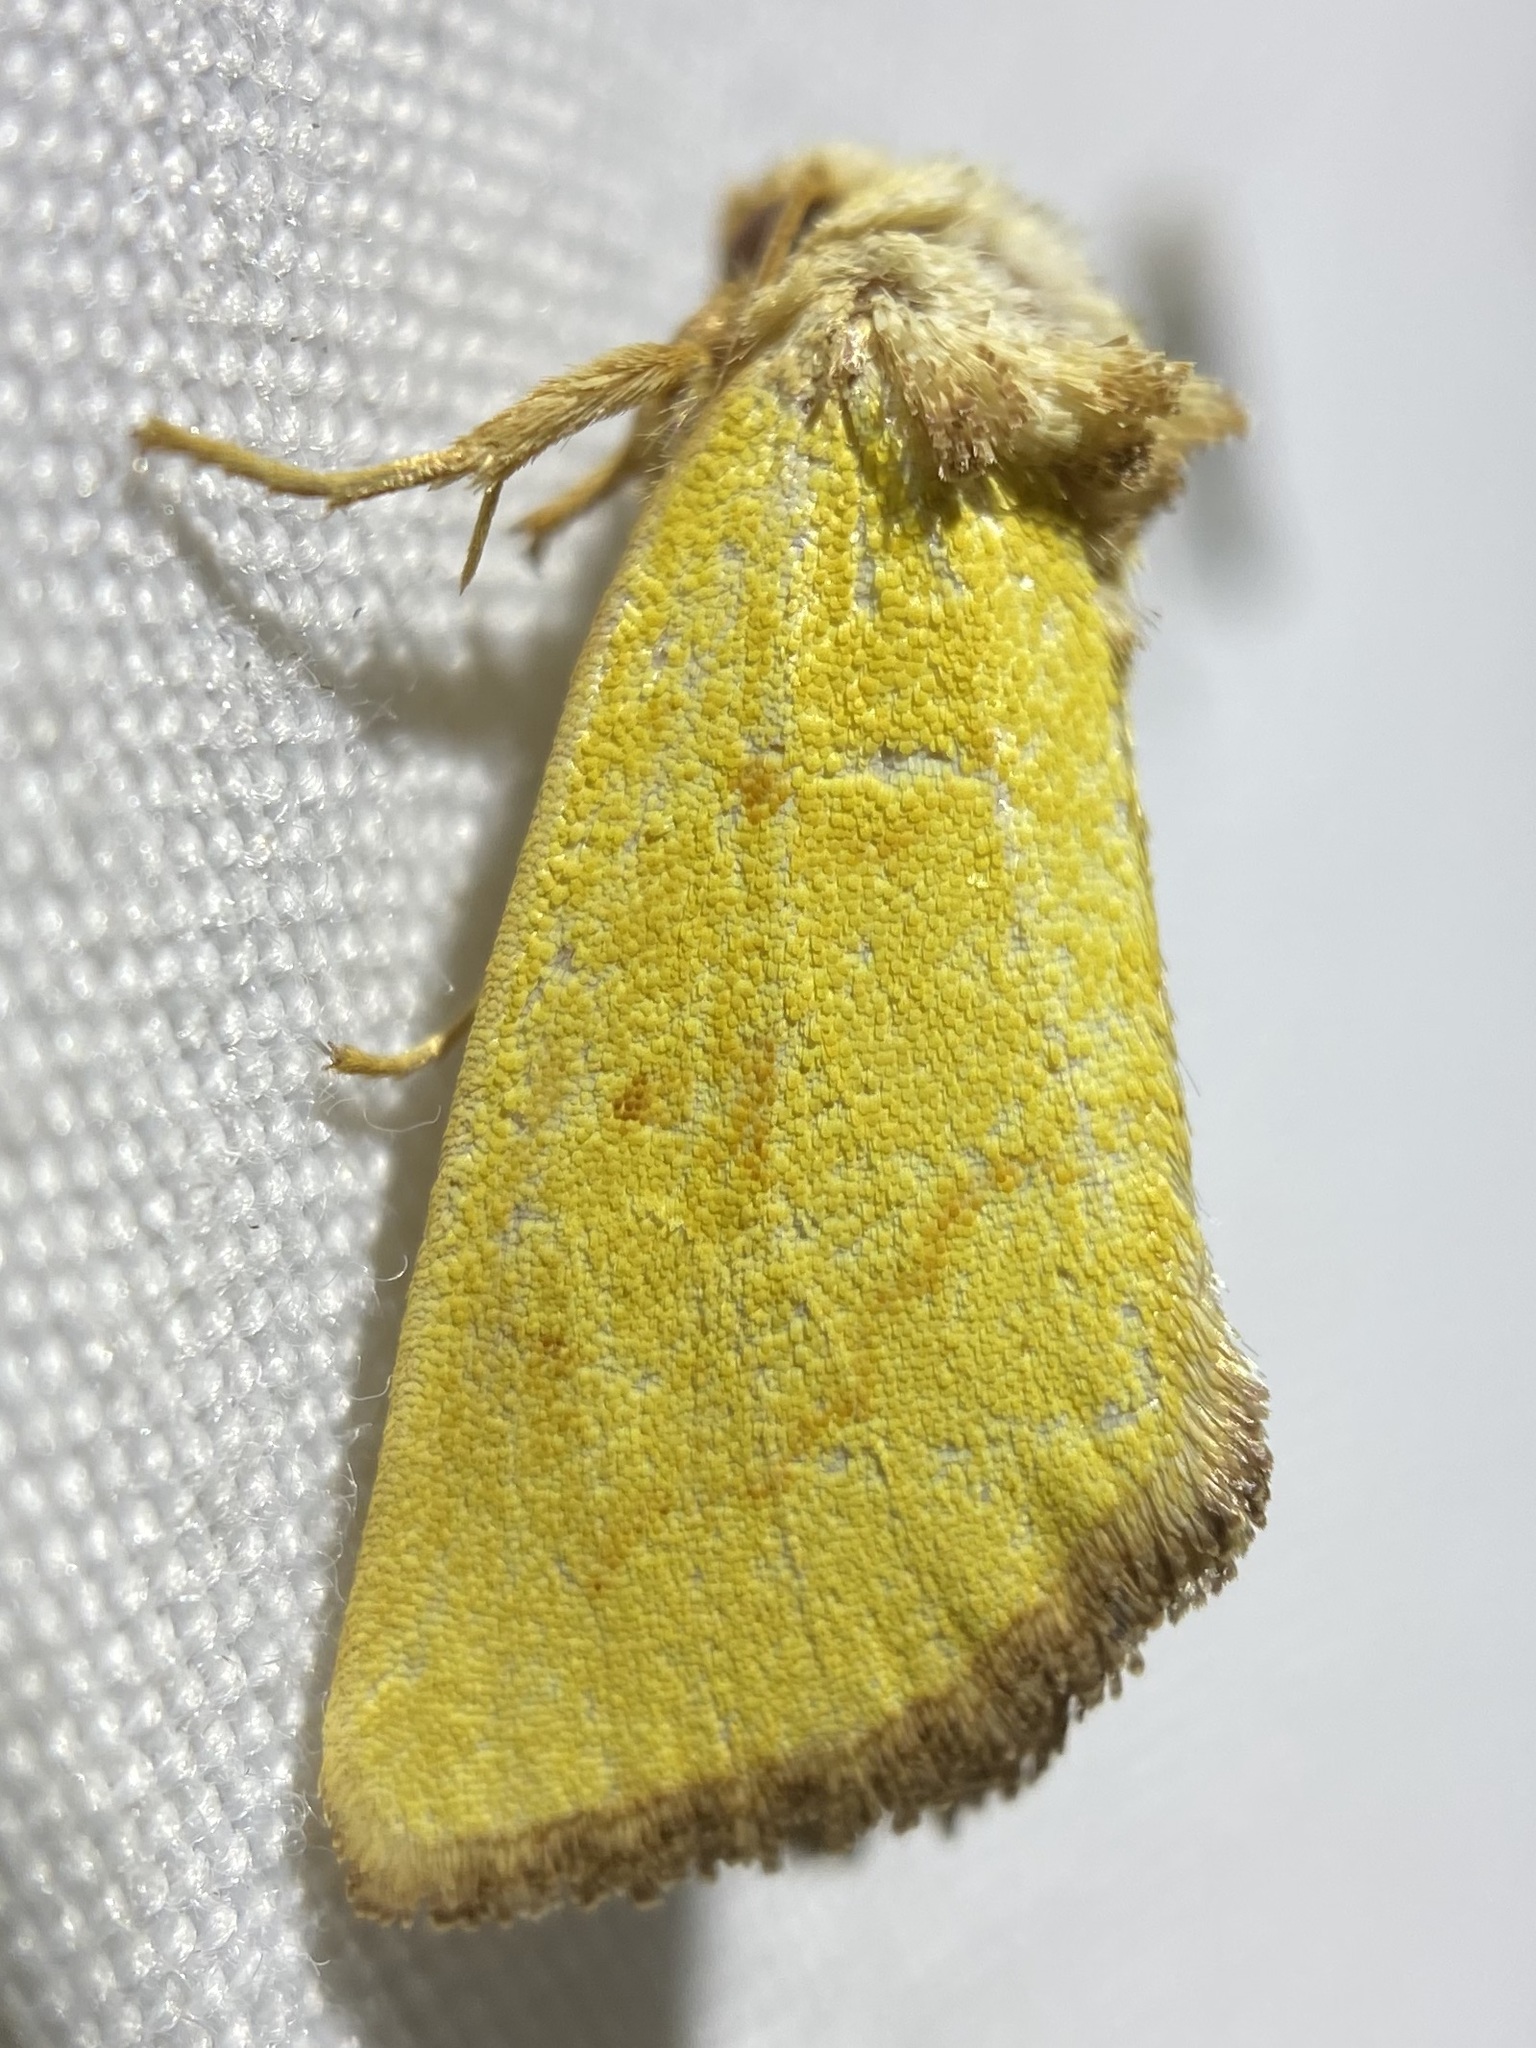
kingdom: Animalia
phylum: Arthropoda
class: Insecta
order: Lepidoptera
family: Noctuidae
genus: Nocloa
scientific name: Nocloa aliaga
